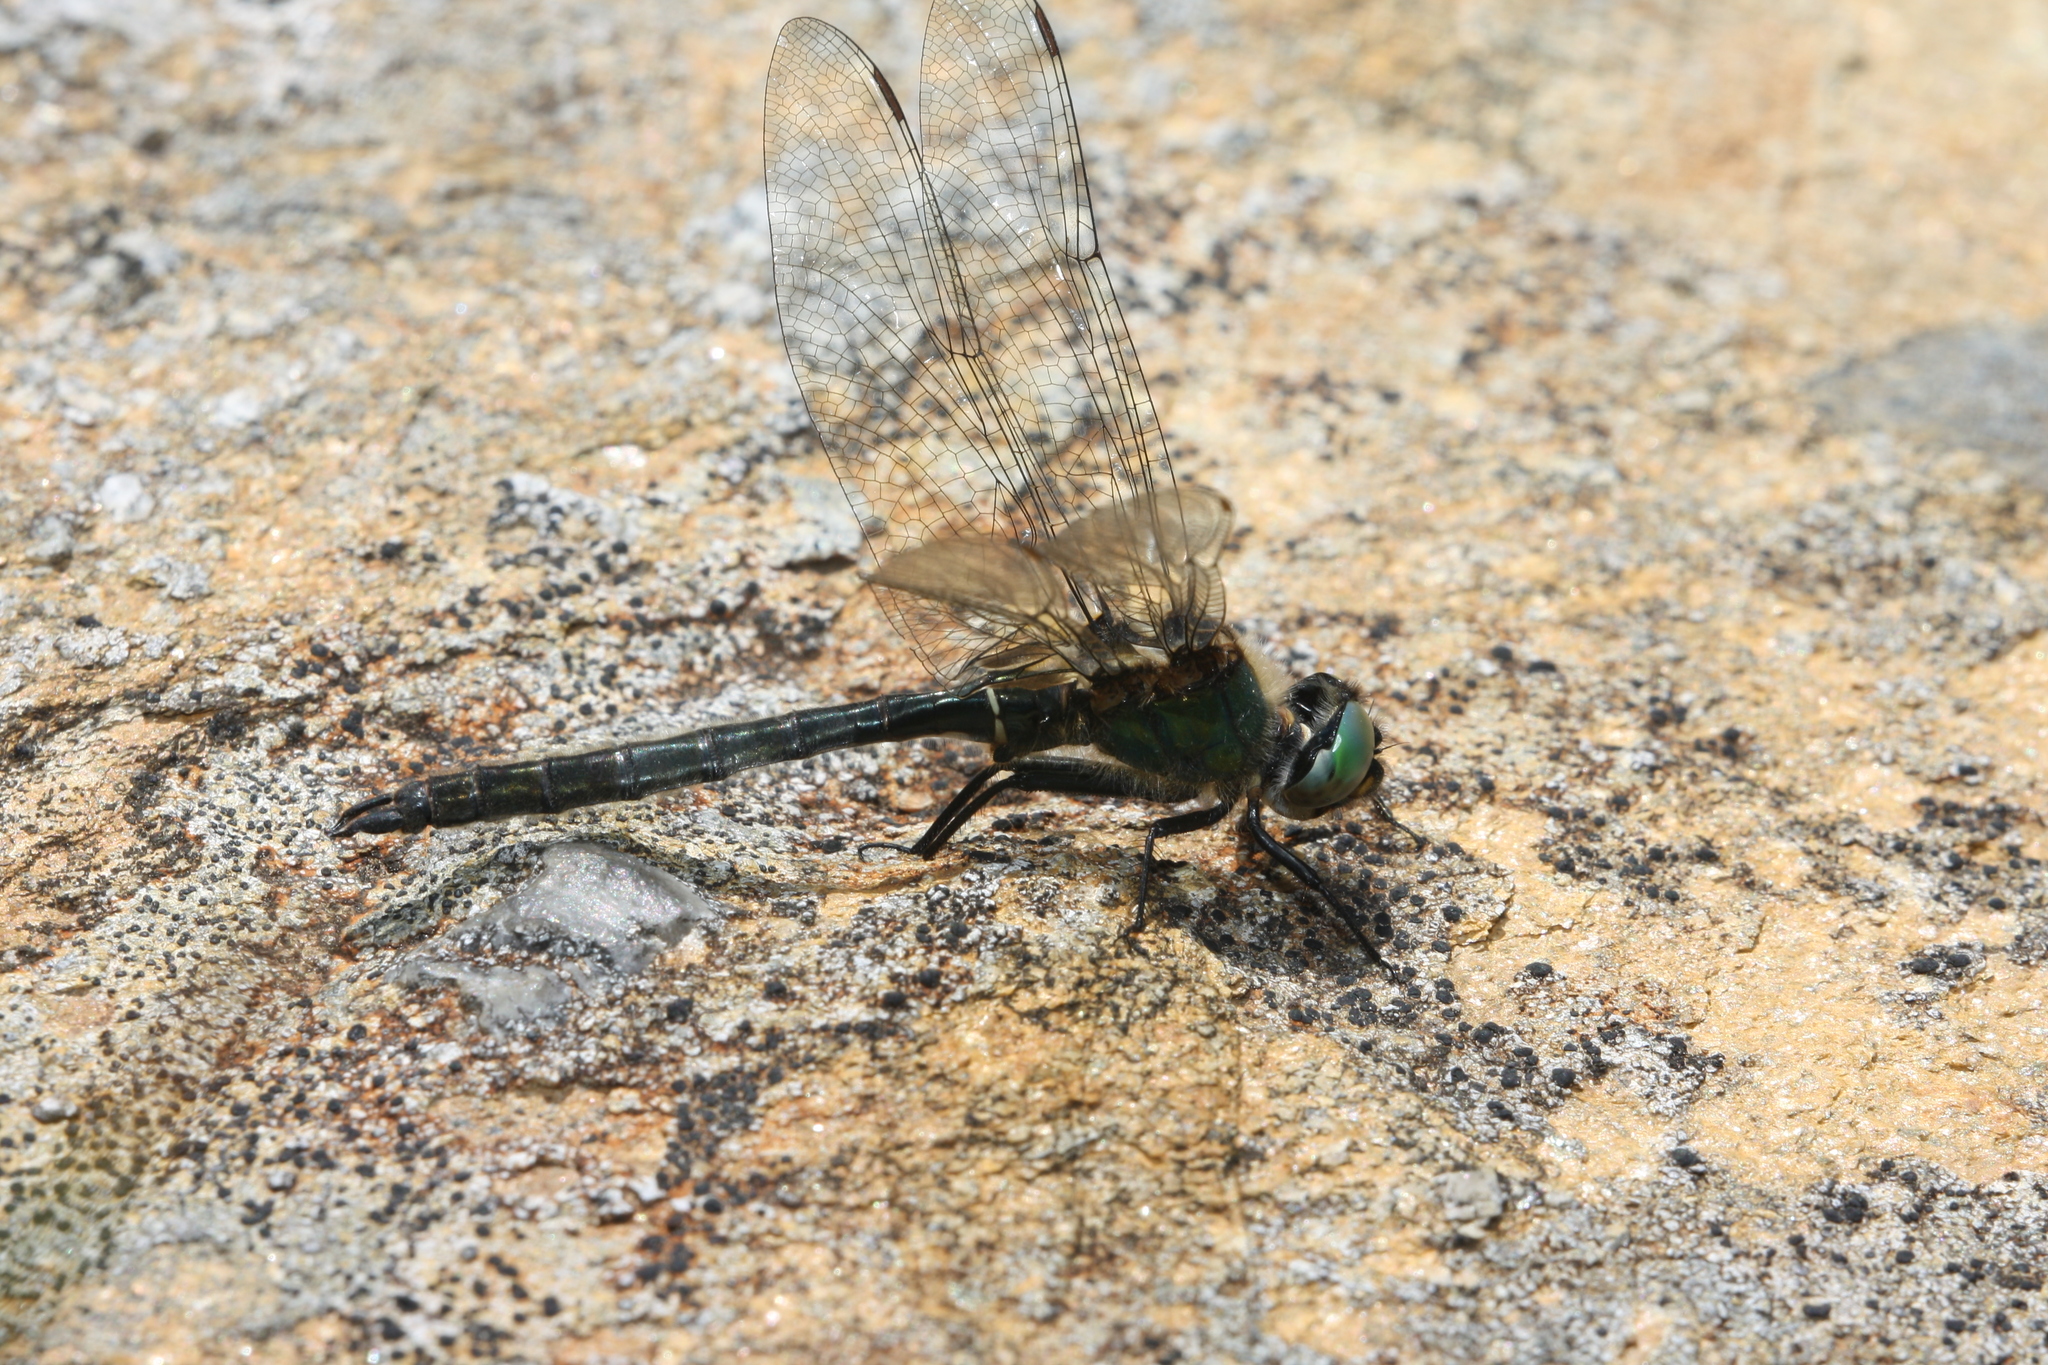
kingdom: Animalia
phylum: Arthropoda
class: Insecta
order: Odonata
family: Corduliidae
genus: Somatochlora
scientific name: Somatochlora alpestris
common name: Alpine emerald
